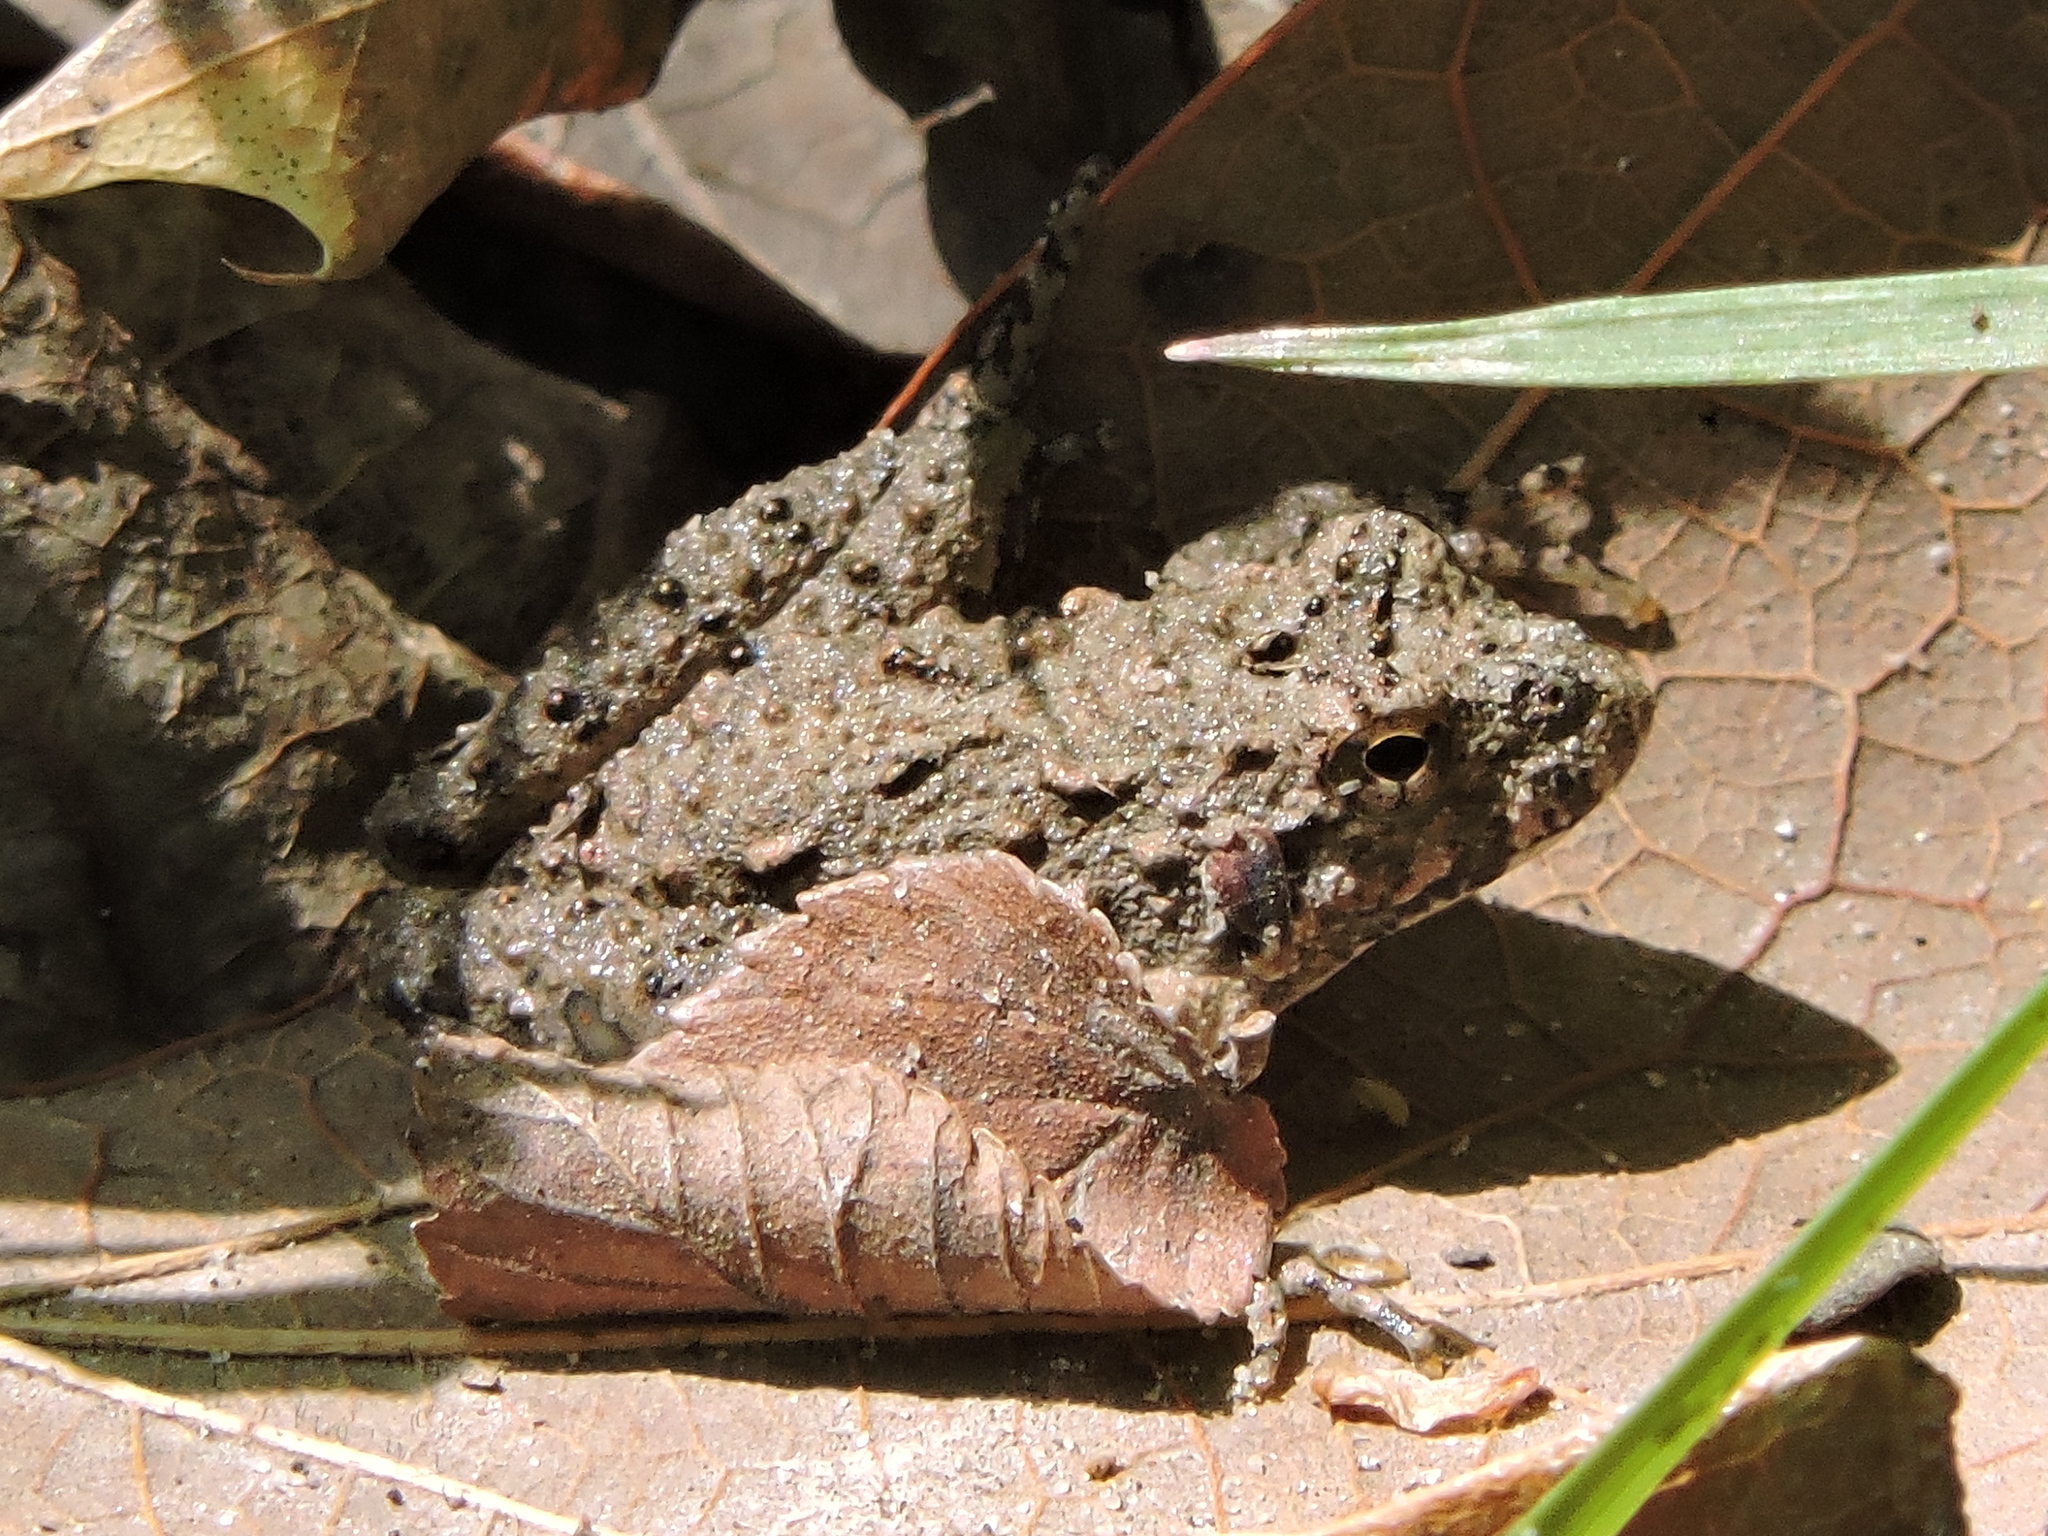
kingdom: Animalia
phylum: Chordata
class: Amphibia
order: Anura
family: Hylidae
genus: Acris
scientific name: Acris blanchardi
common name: Blanchard's cricket frog
